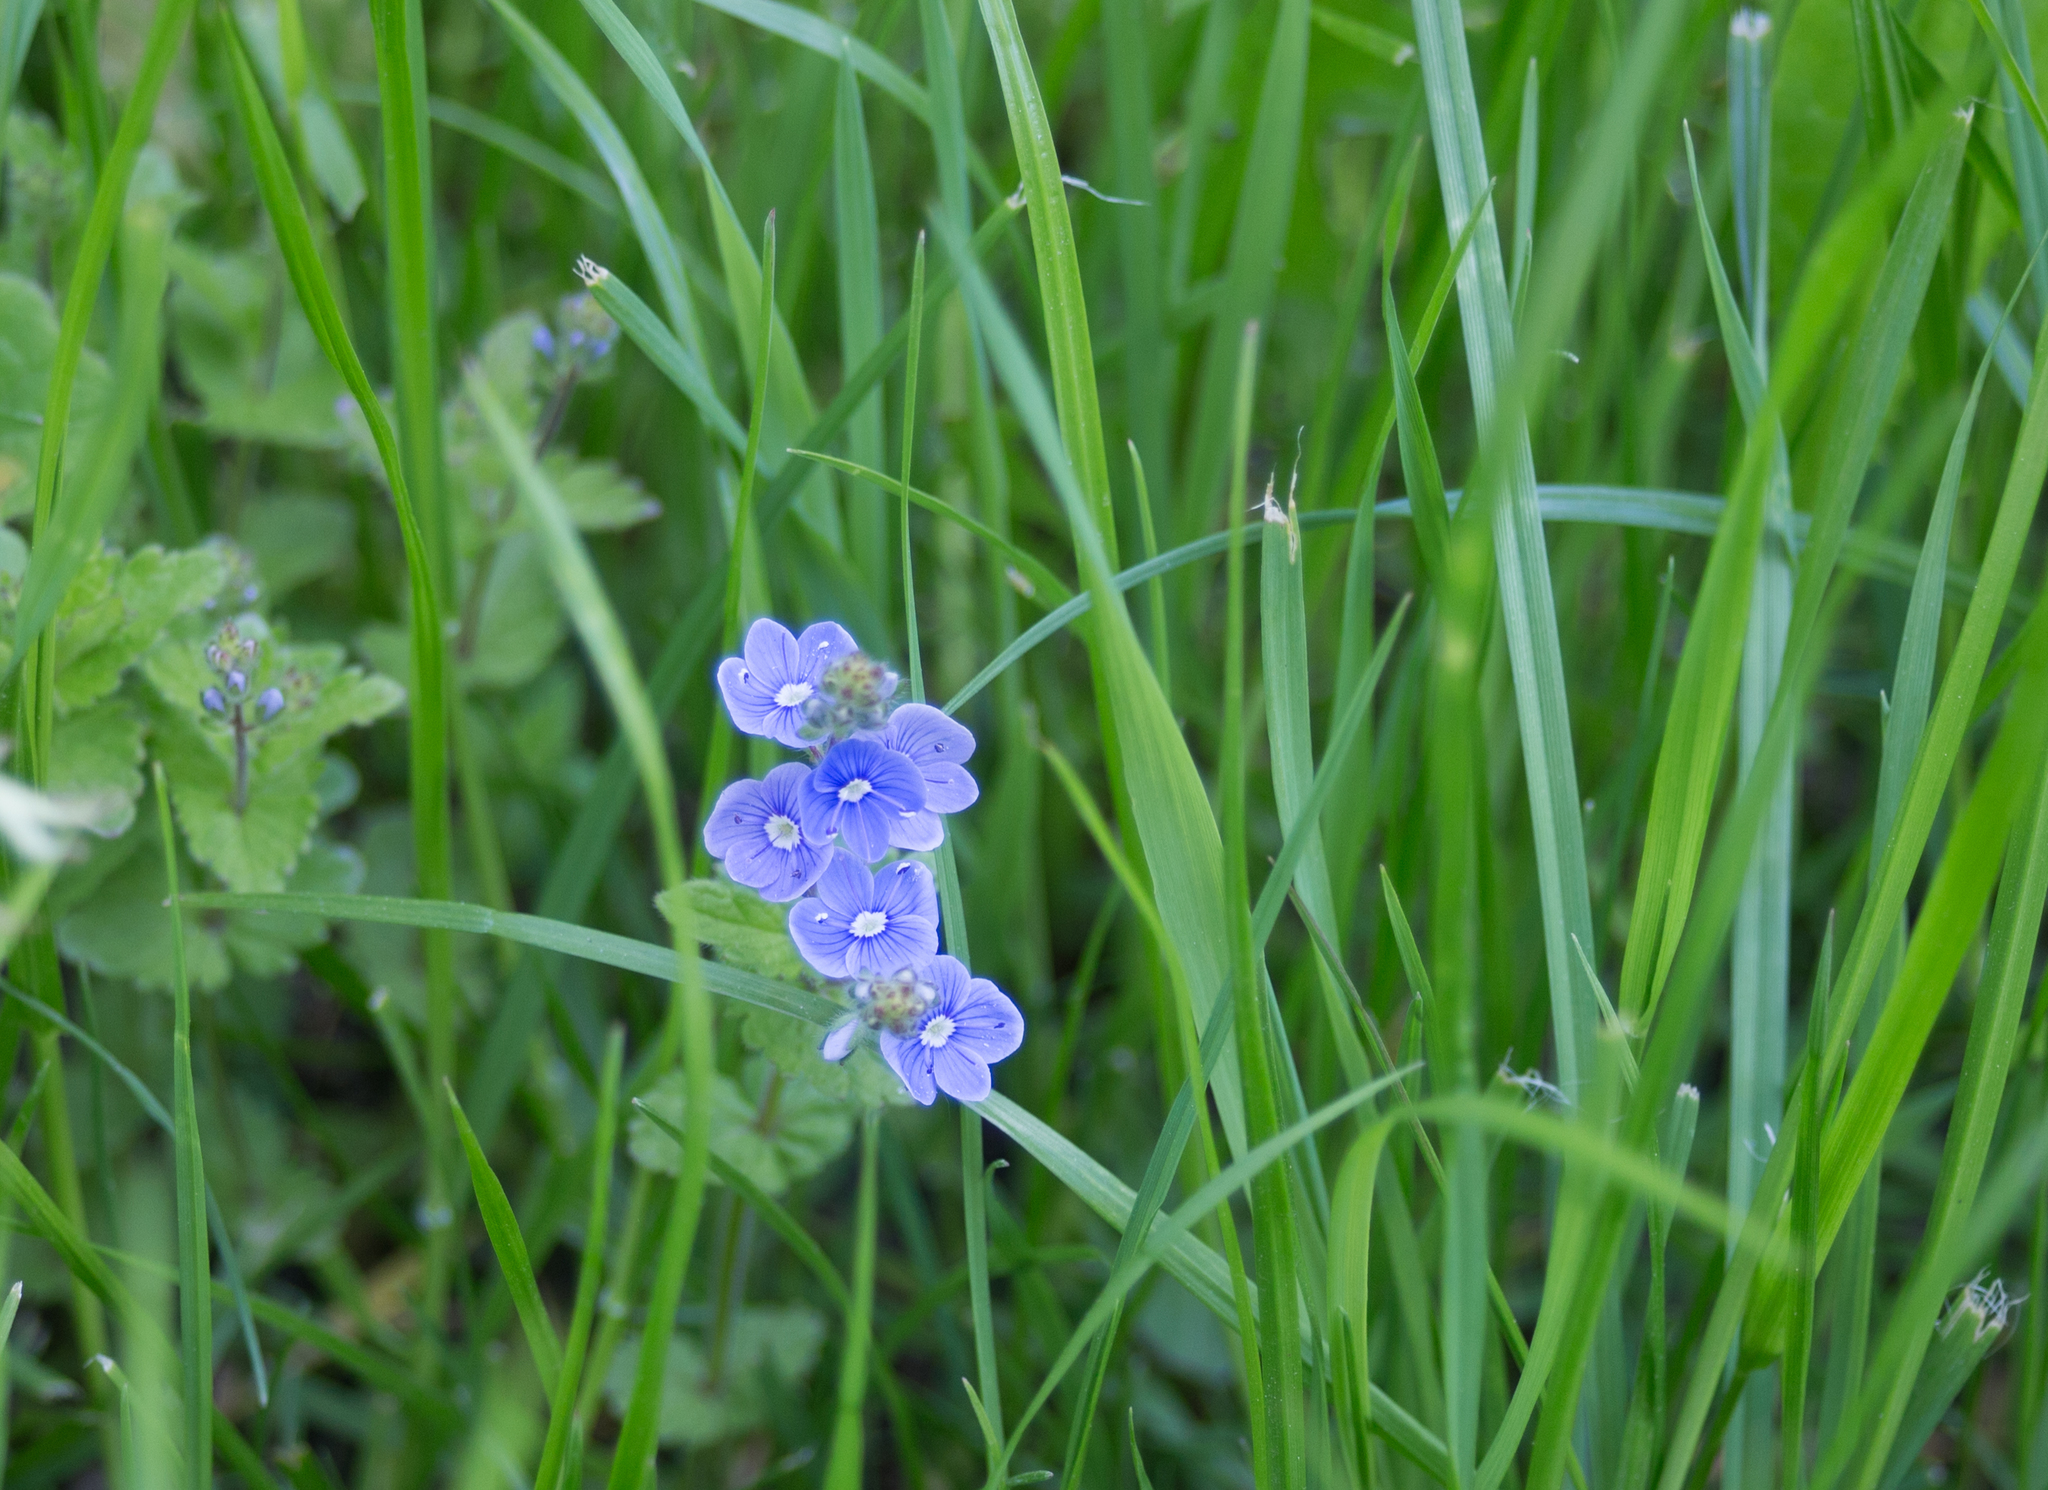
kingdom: Plantae
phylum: Tracheophyta
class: Magnoliopsida
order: Lamiales
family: Plantaginaceae
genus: Veronica
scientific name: Veronica chamaedrys
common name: Germander speedwell
